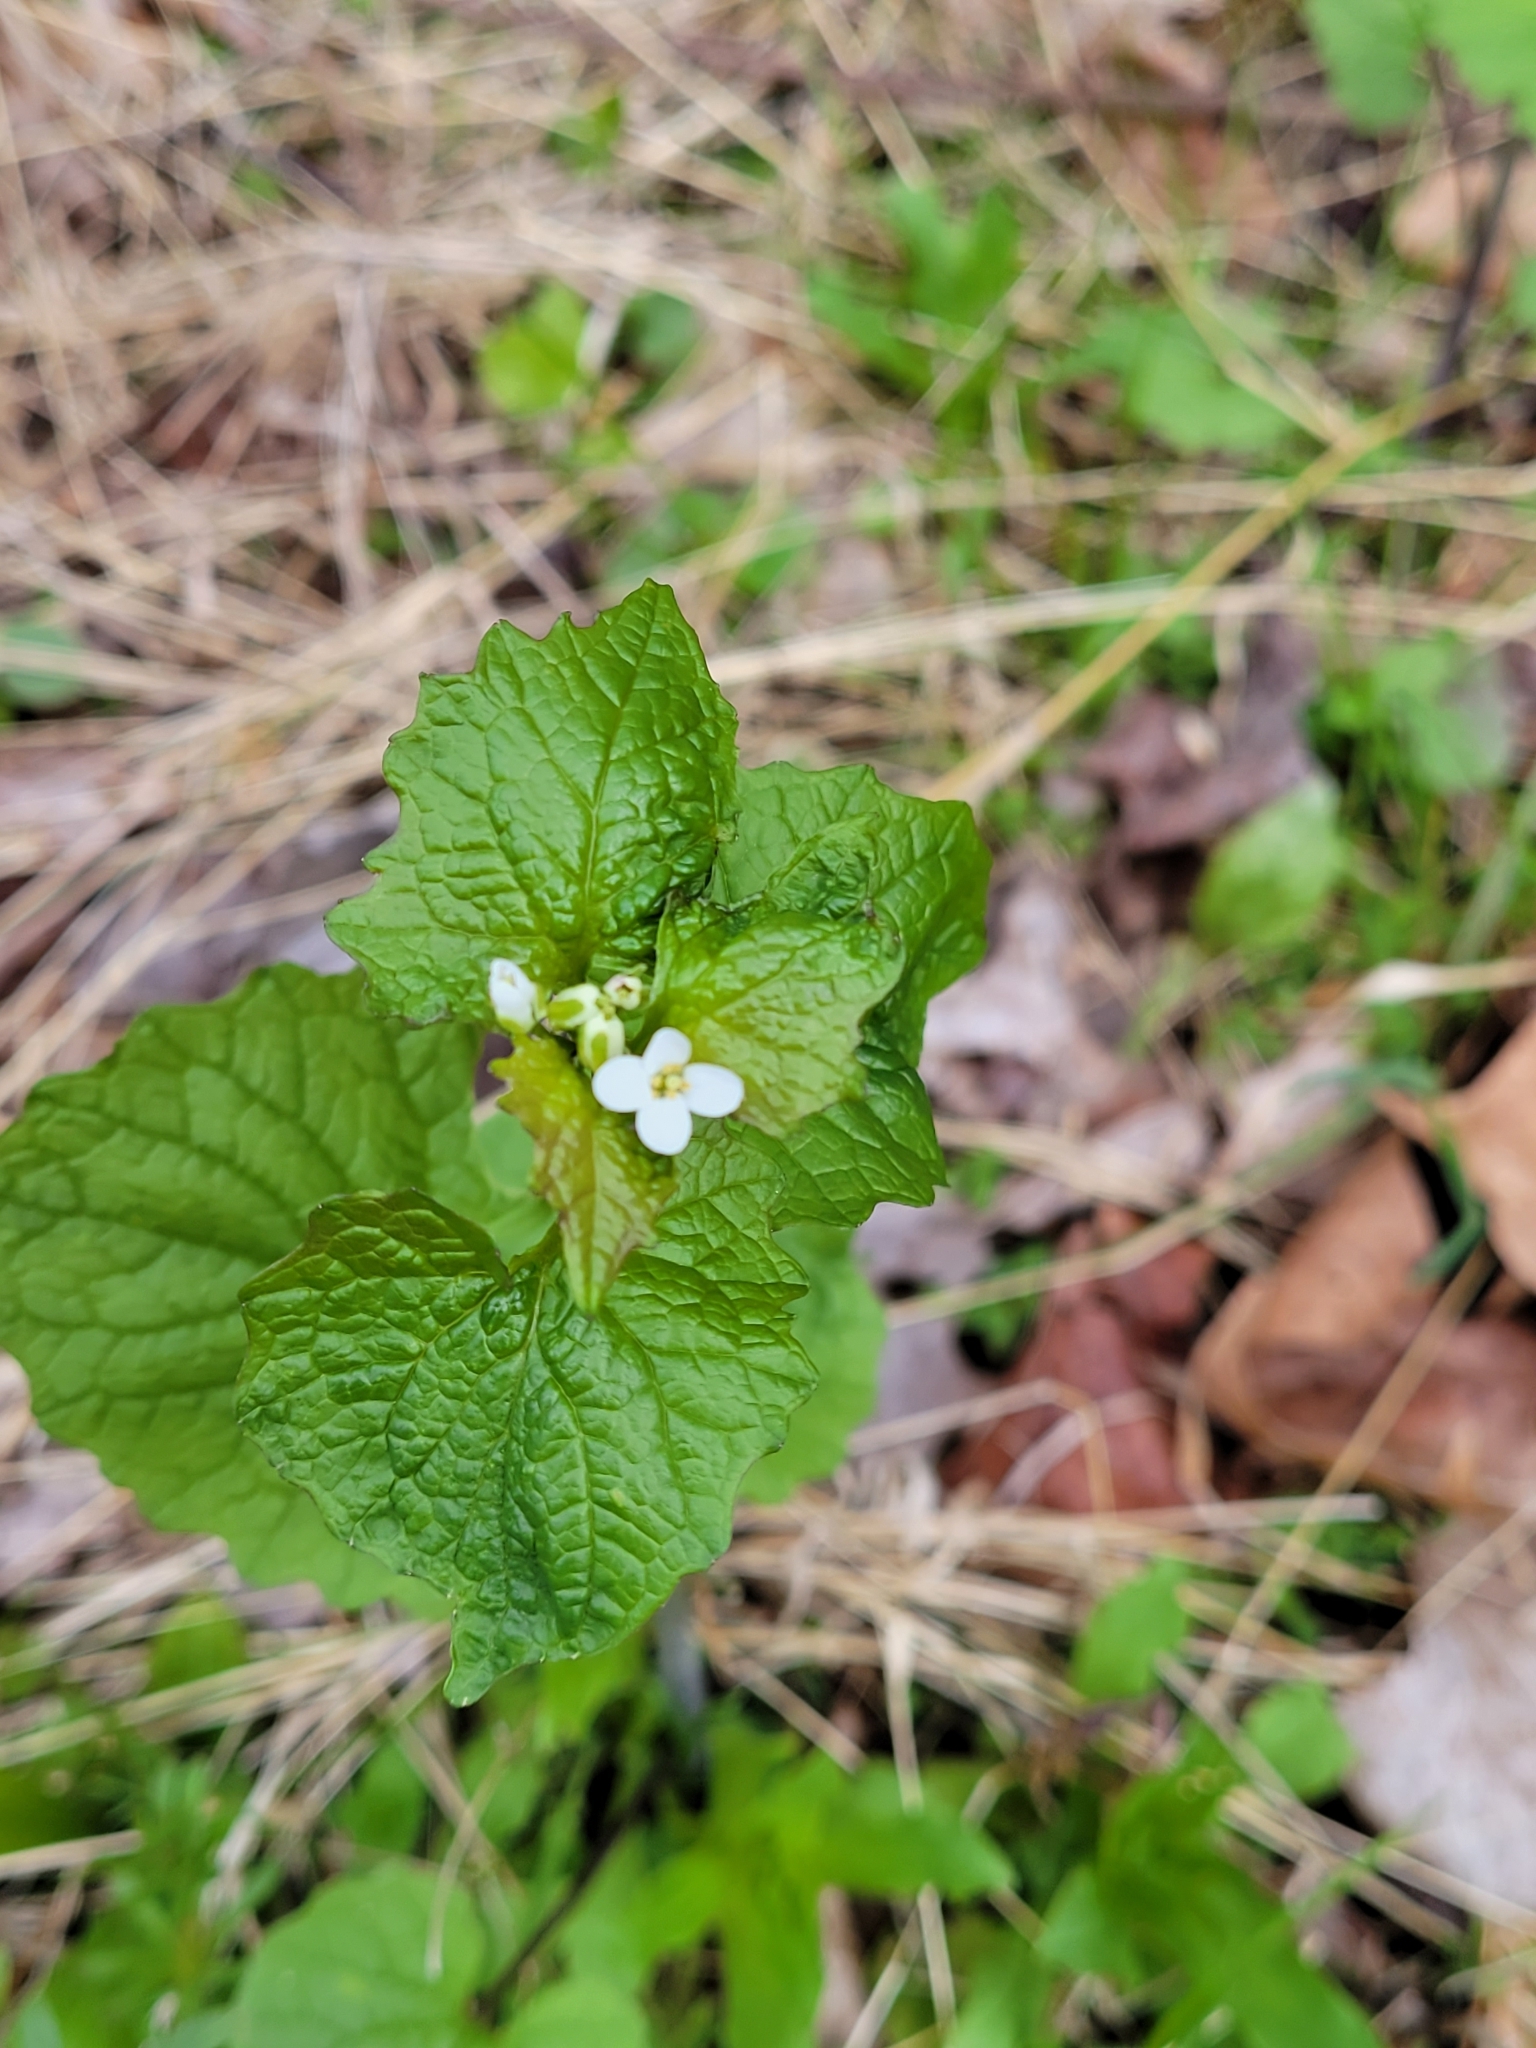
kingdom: Plantae
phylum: Tracheophyta
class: Magnoliopsida
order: Brassicales
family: Brassicaceae
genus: Alliaria
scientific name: Alliaria petiolata
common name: Garlic mustard
